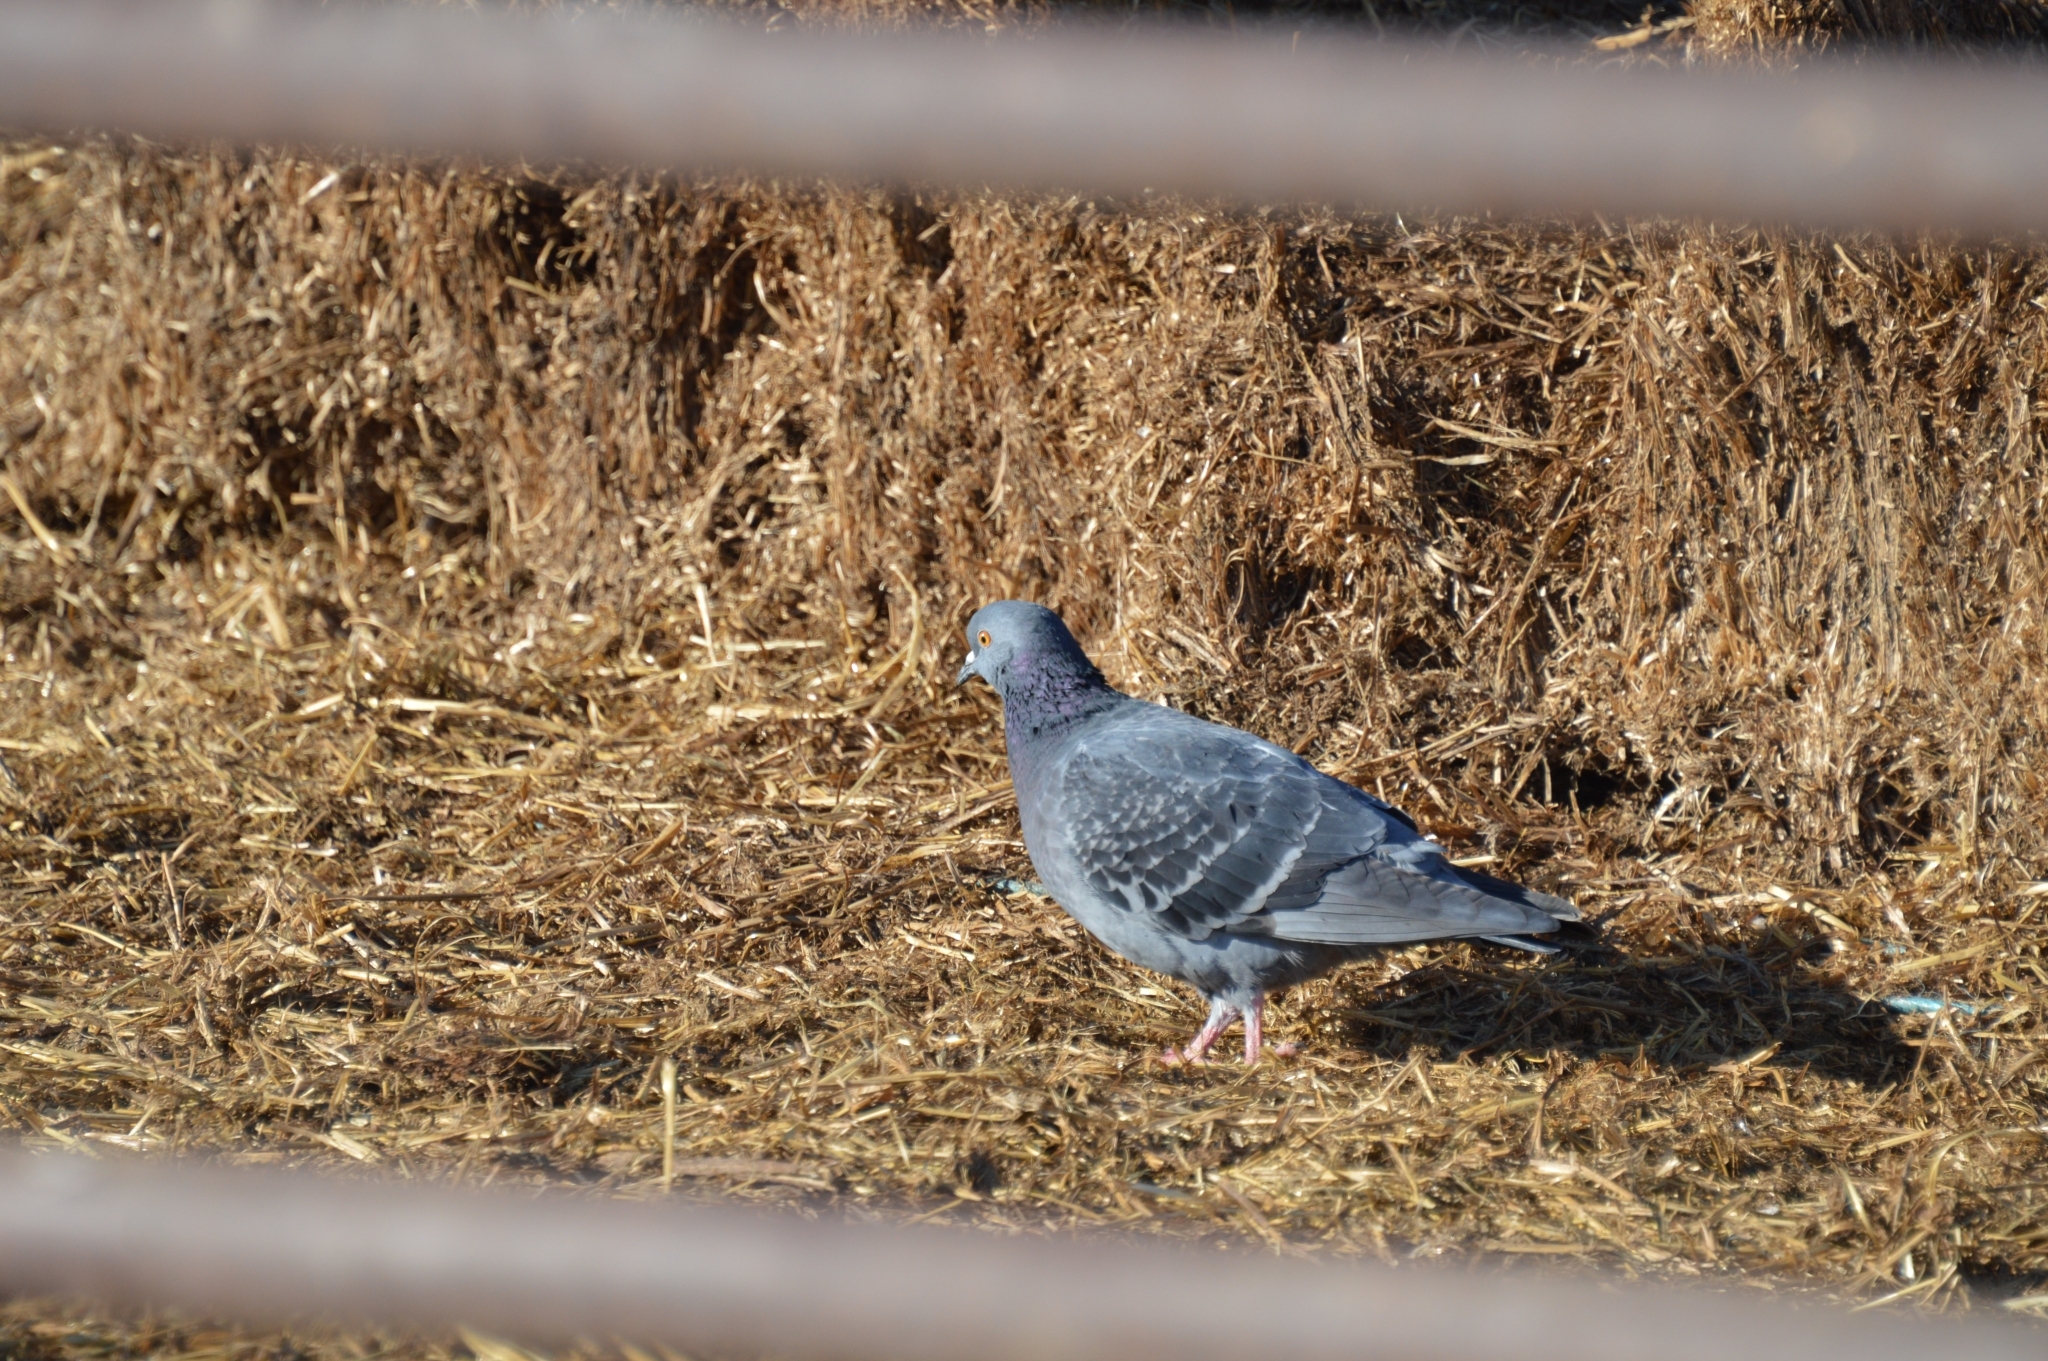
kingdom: Animalia
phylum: Chordata
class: Aves
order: Columbiformes
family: Columbidae
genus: Columba
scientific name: Columba livia
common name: Rock pigeon
